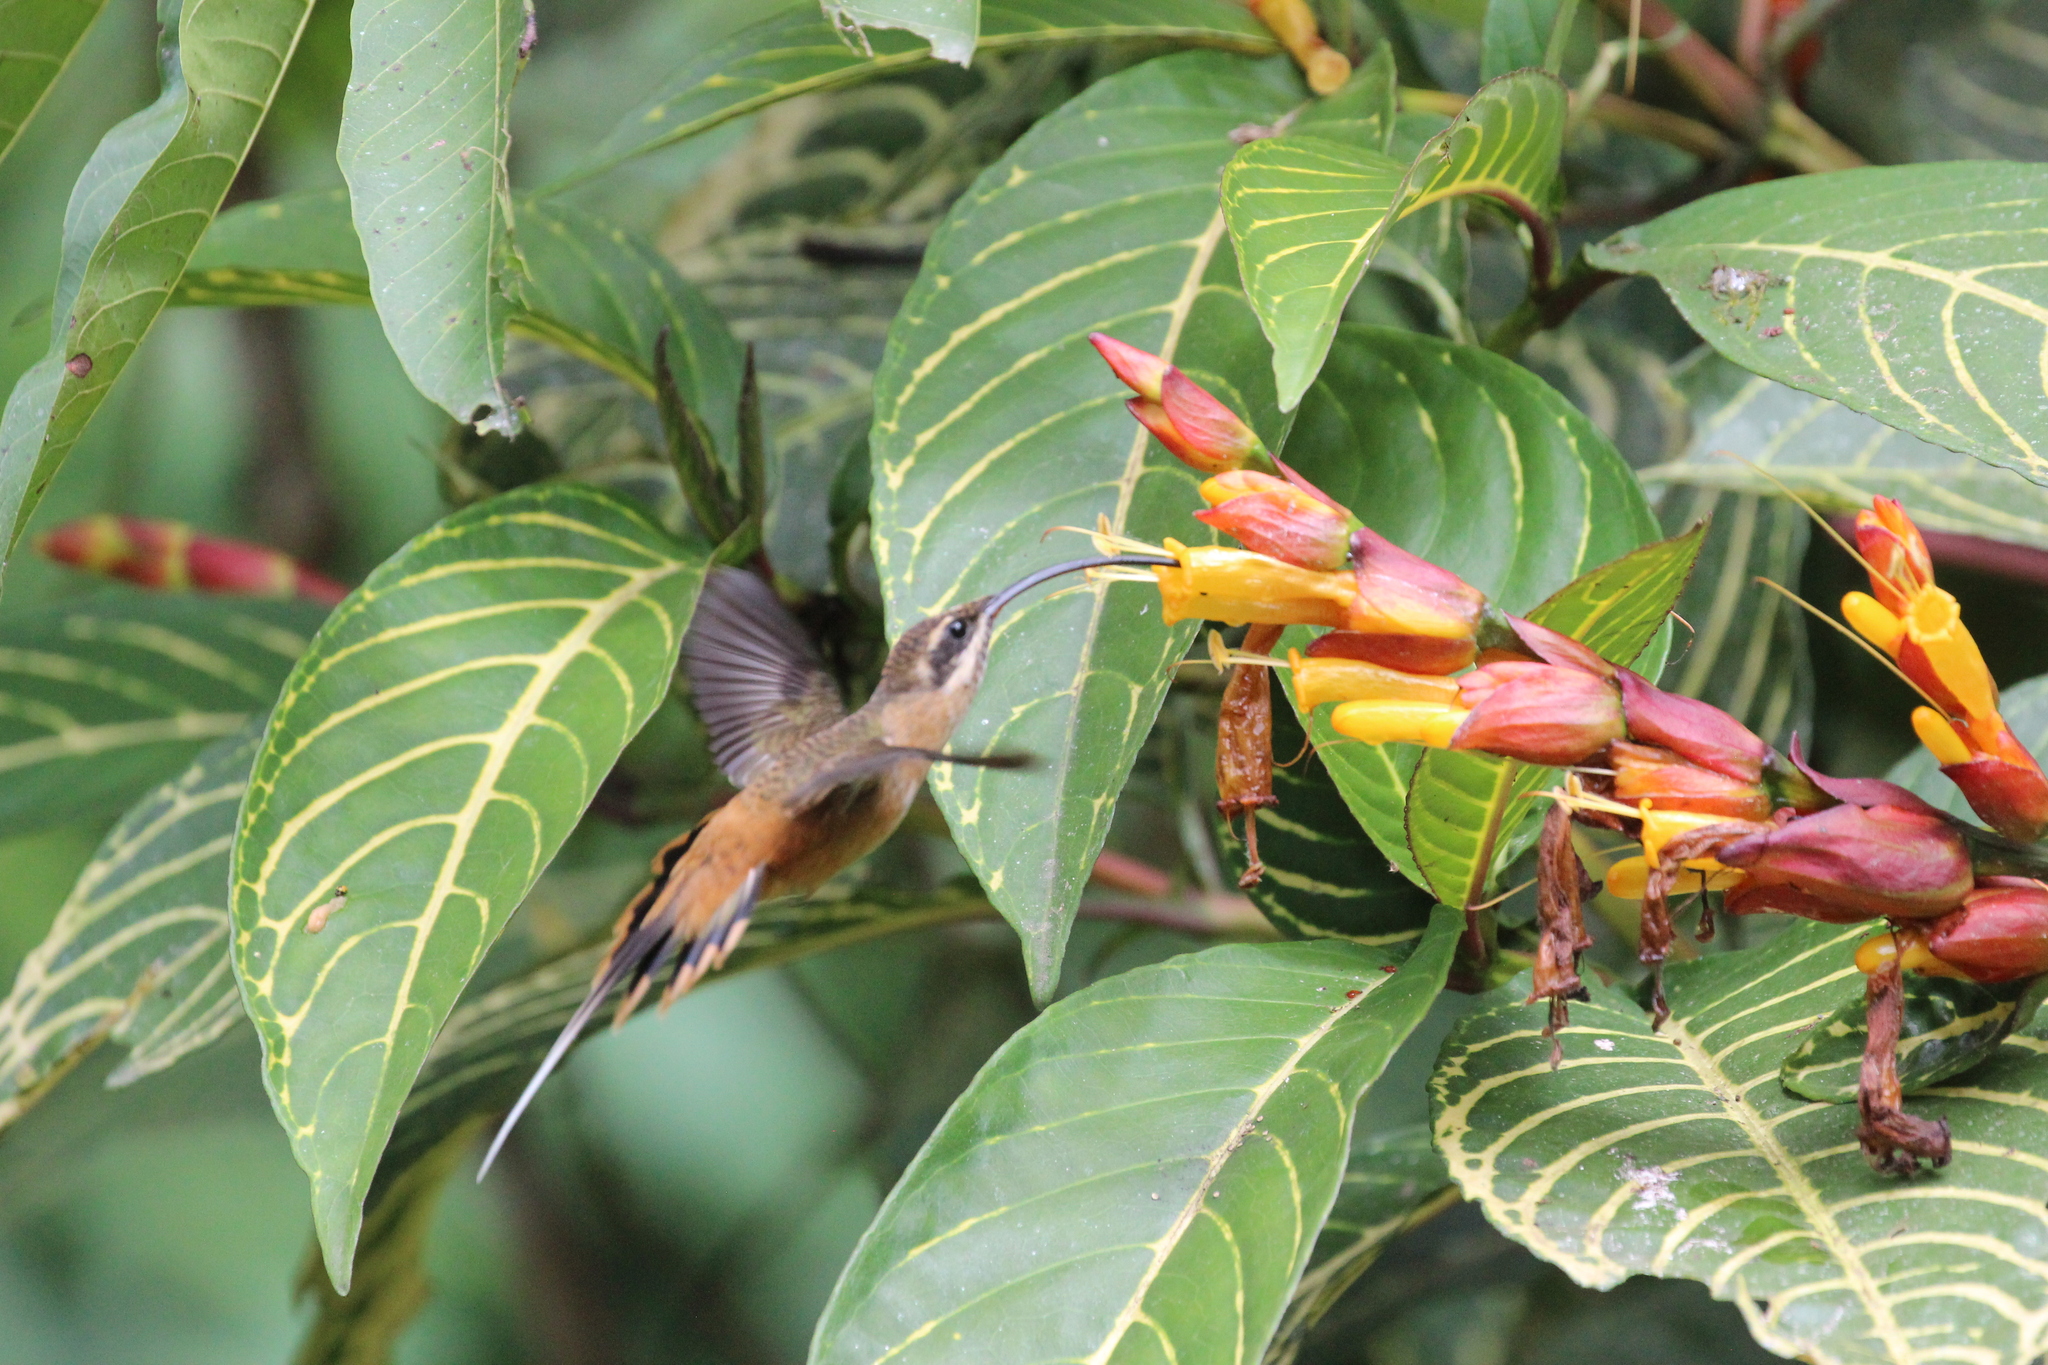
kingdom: Animalia
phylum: Chordata
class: Aves
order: Apodiformes
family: Trochilidae
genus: Phaethornis
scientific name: Phaethornis syrmatophorus
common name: Tawny-bellied hermit
